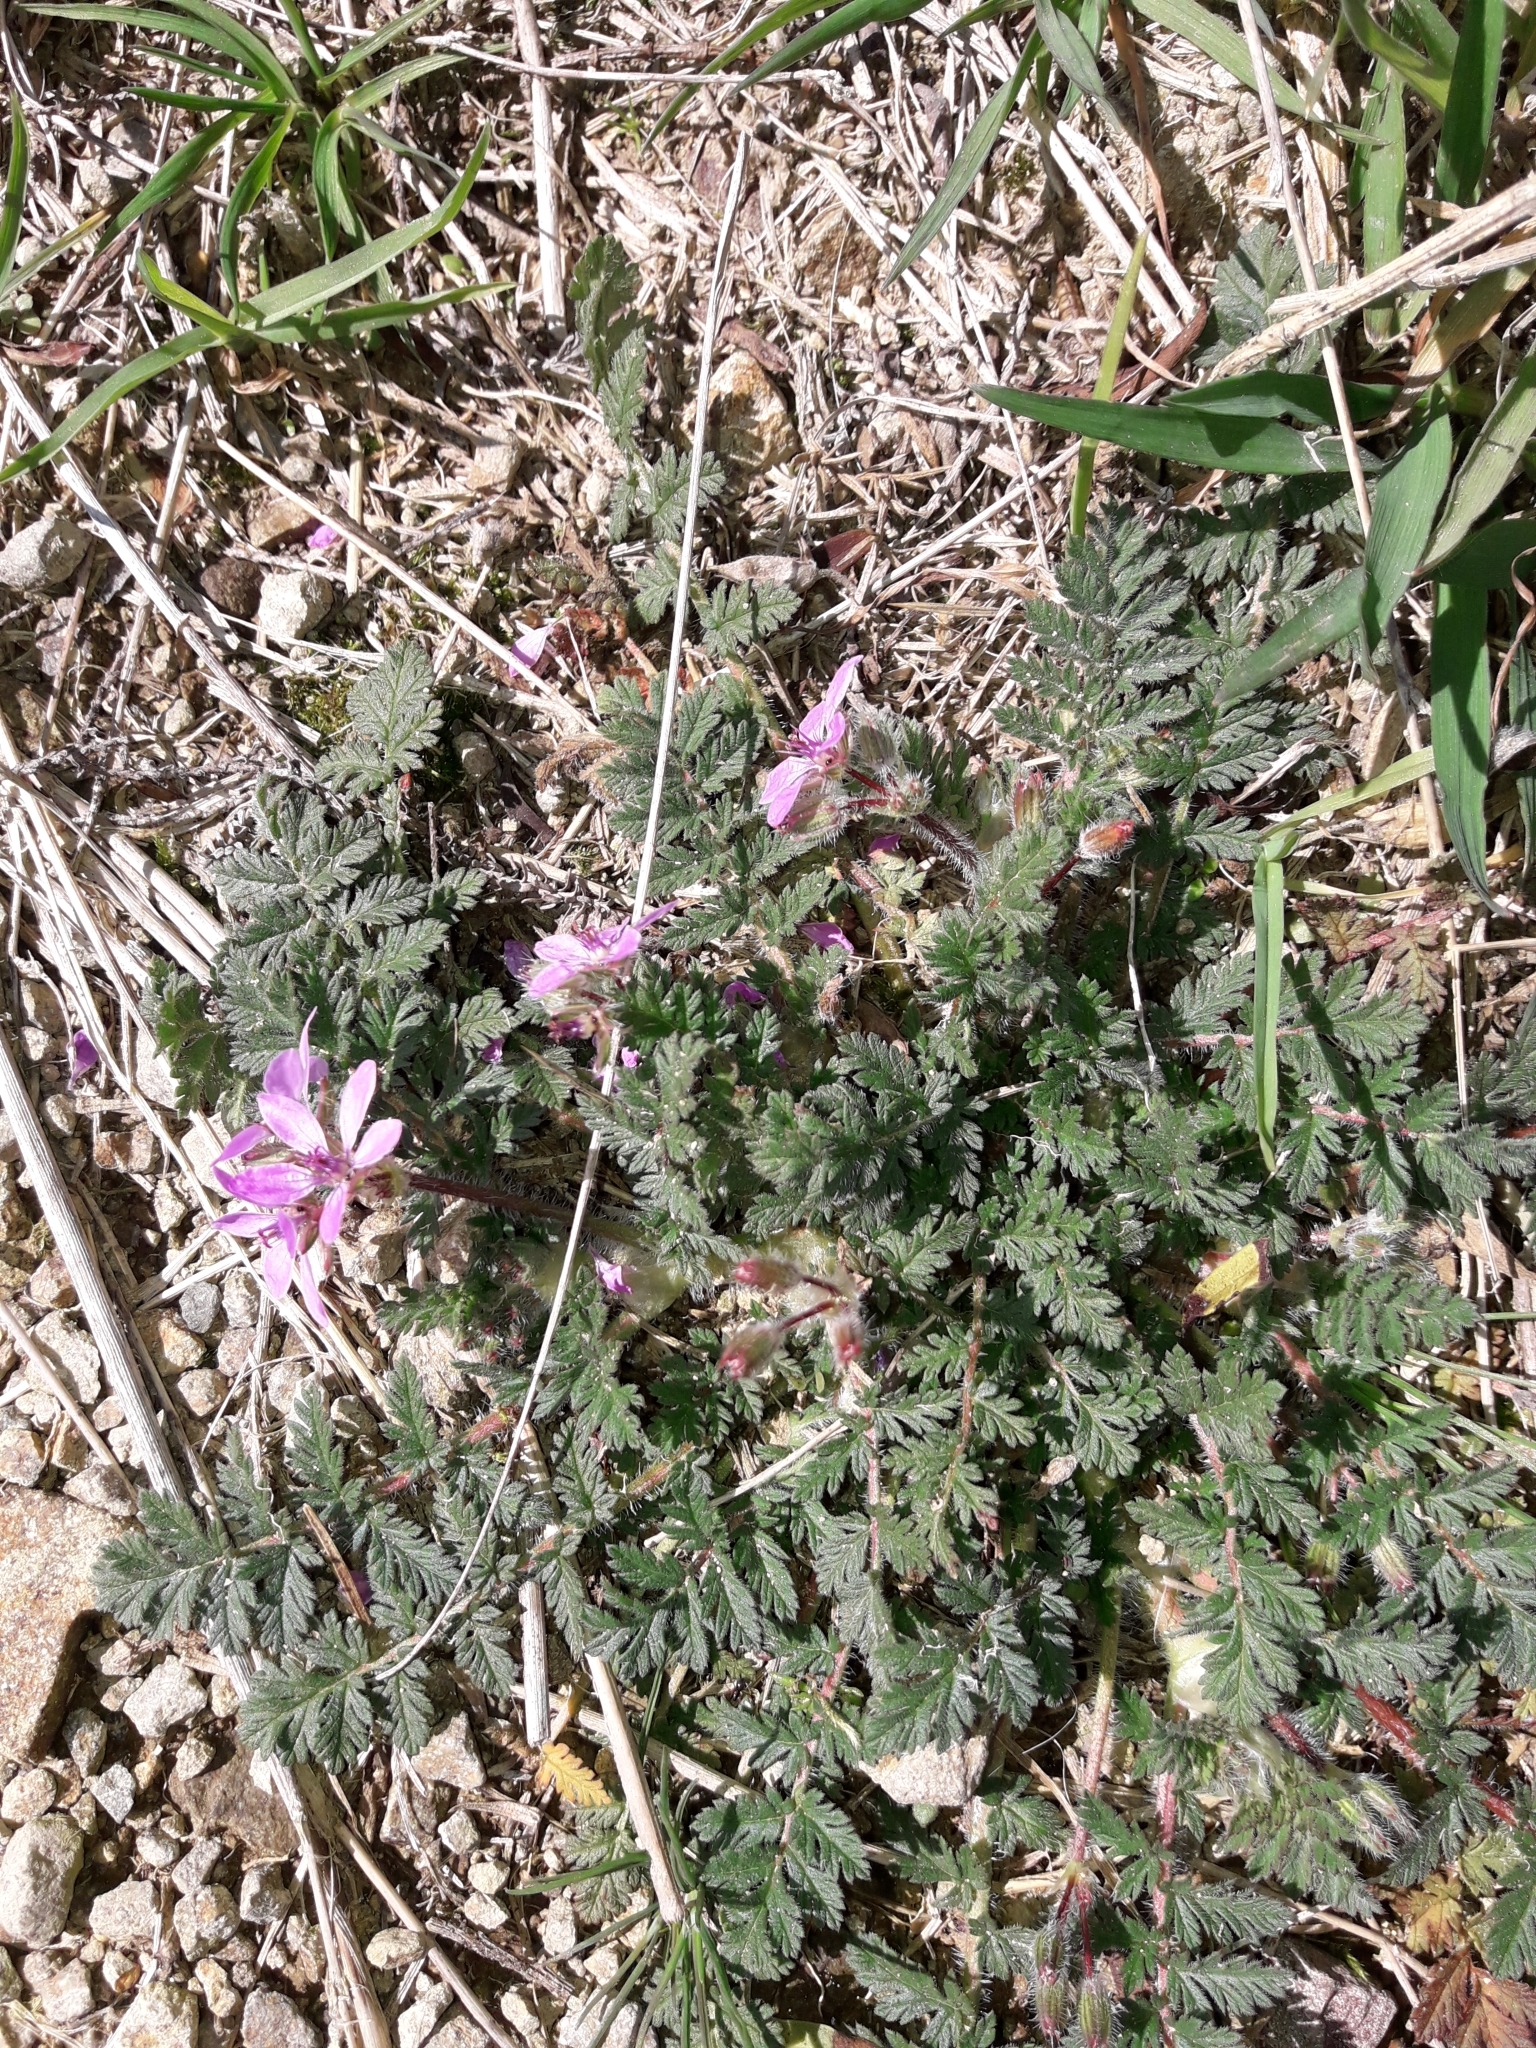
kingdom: Plantae
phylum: Tracheophyta
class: Magnoliopsida
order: Geraniales
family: Geraniaceae
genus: Erodium
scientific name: Erodium cicutarium
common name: Common stork's-bill
